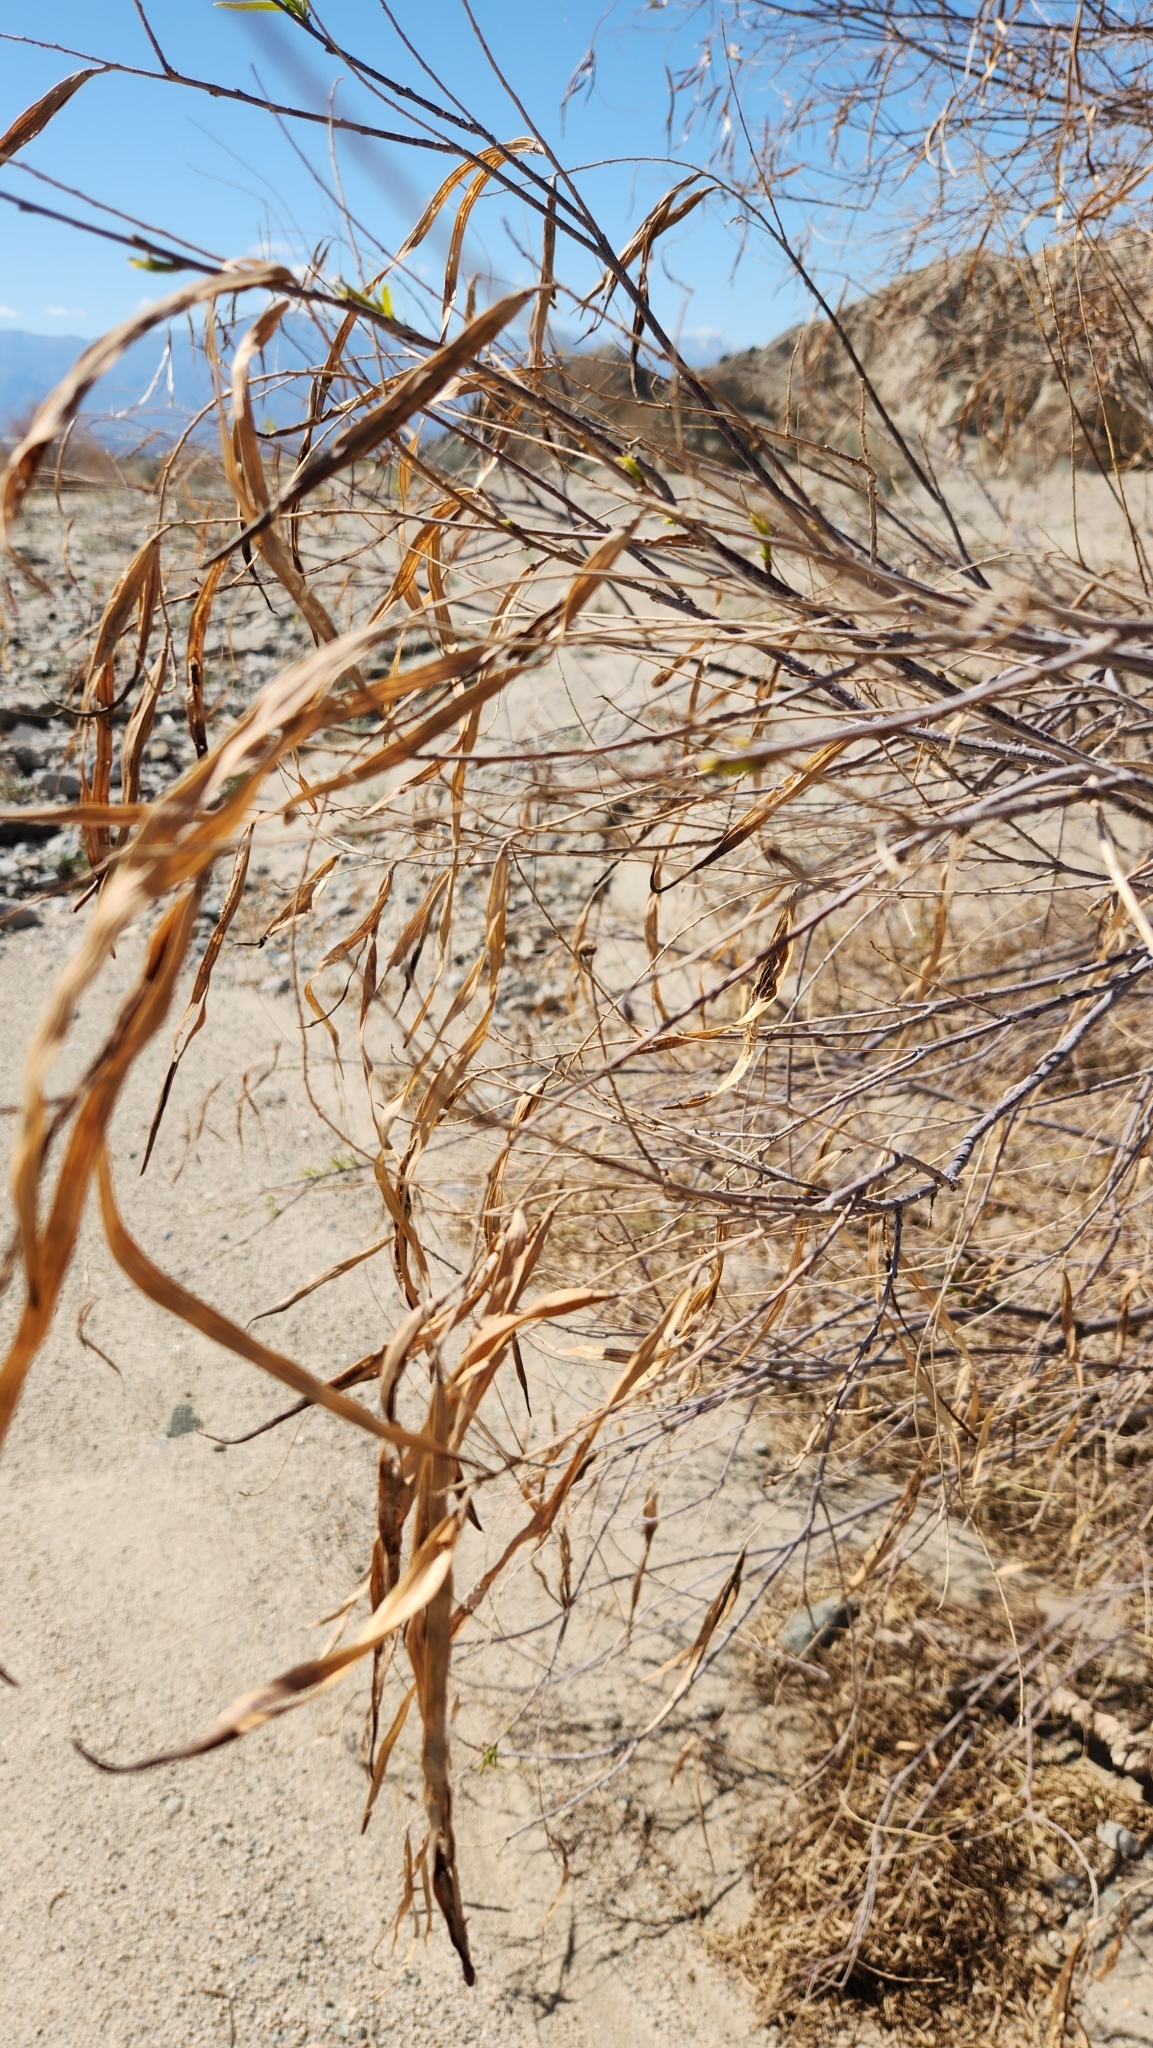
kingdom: Plantae
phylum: Tracheophyta
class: Magnoliopsida
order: Lamiales
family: Bignoniaceae
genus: Chilopsis
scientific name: Chilopsis linearis
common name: Desert-willow
